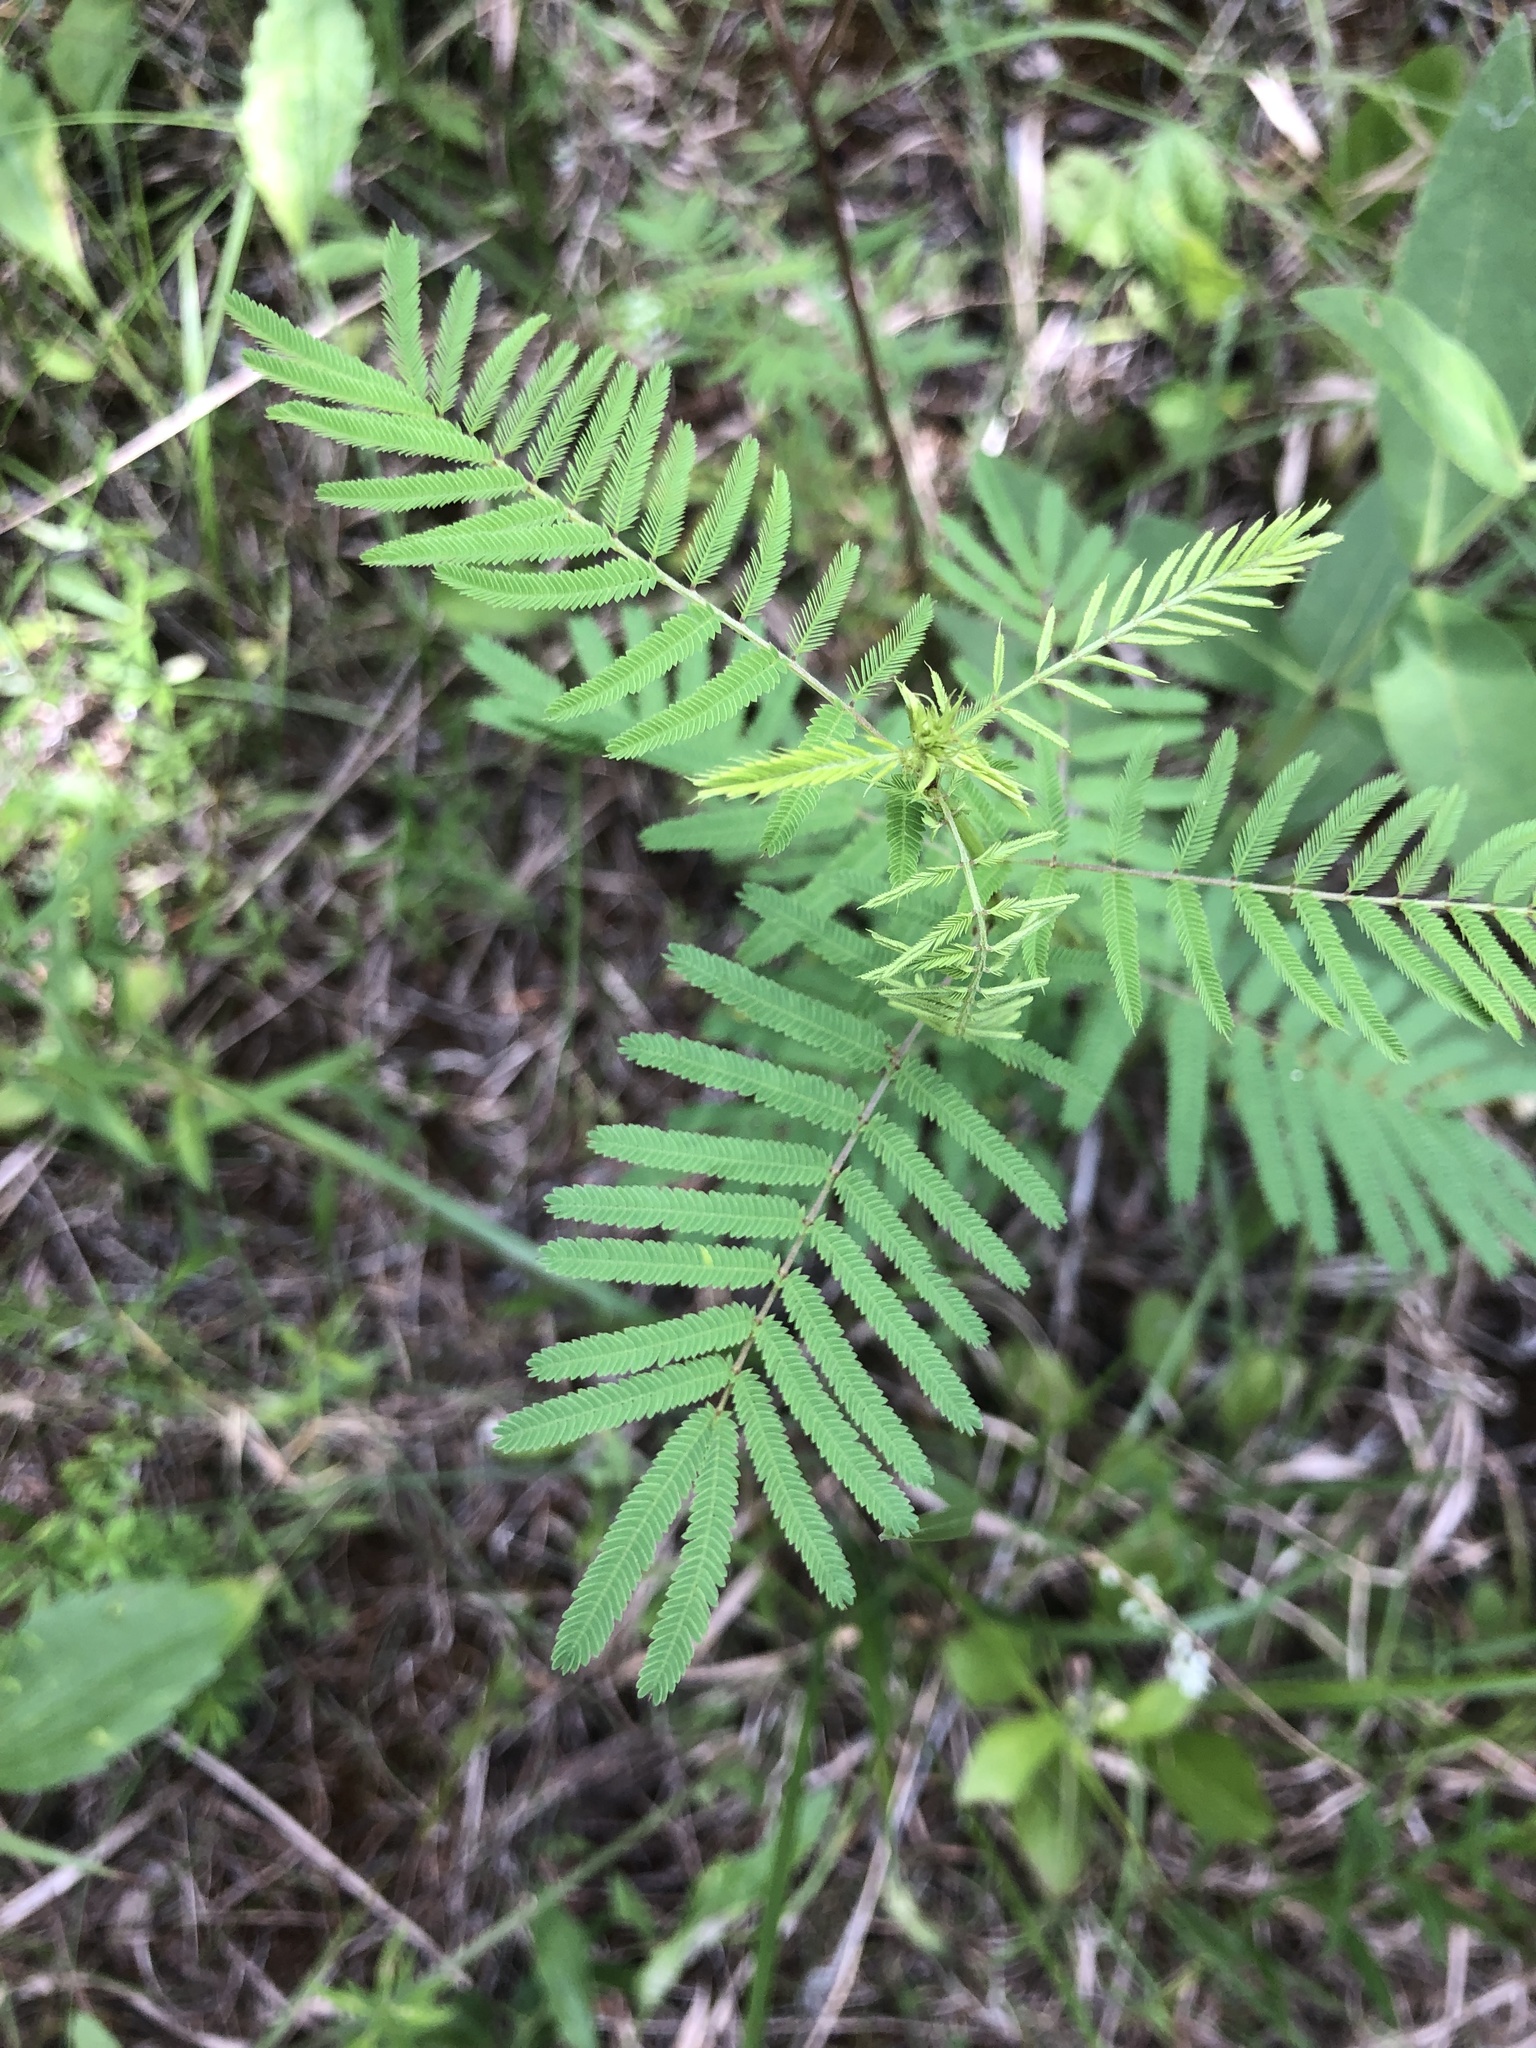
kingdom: Plantae
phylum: Tracheophyta
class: Magnoliopsida
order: Fabales
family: Fabaceae
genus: Desmanthus
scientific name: Desmanthus illinoensis
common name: Illinois bundle-flower
